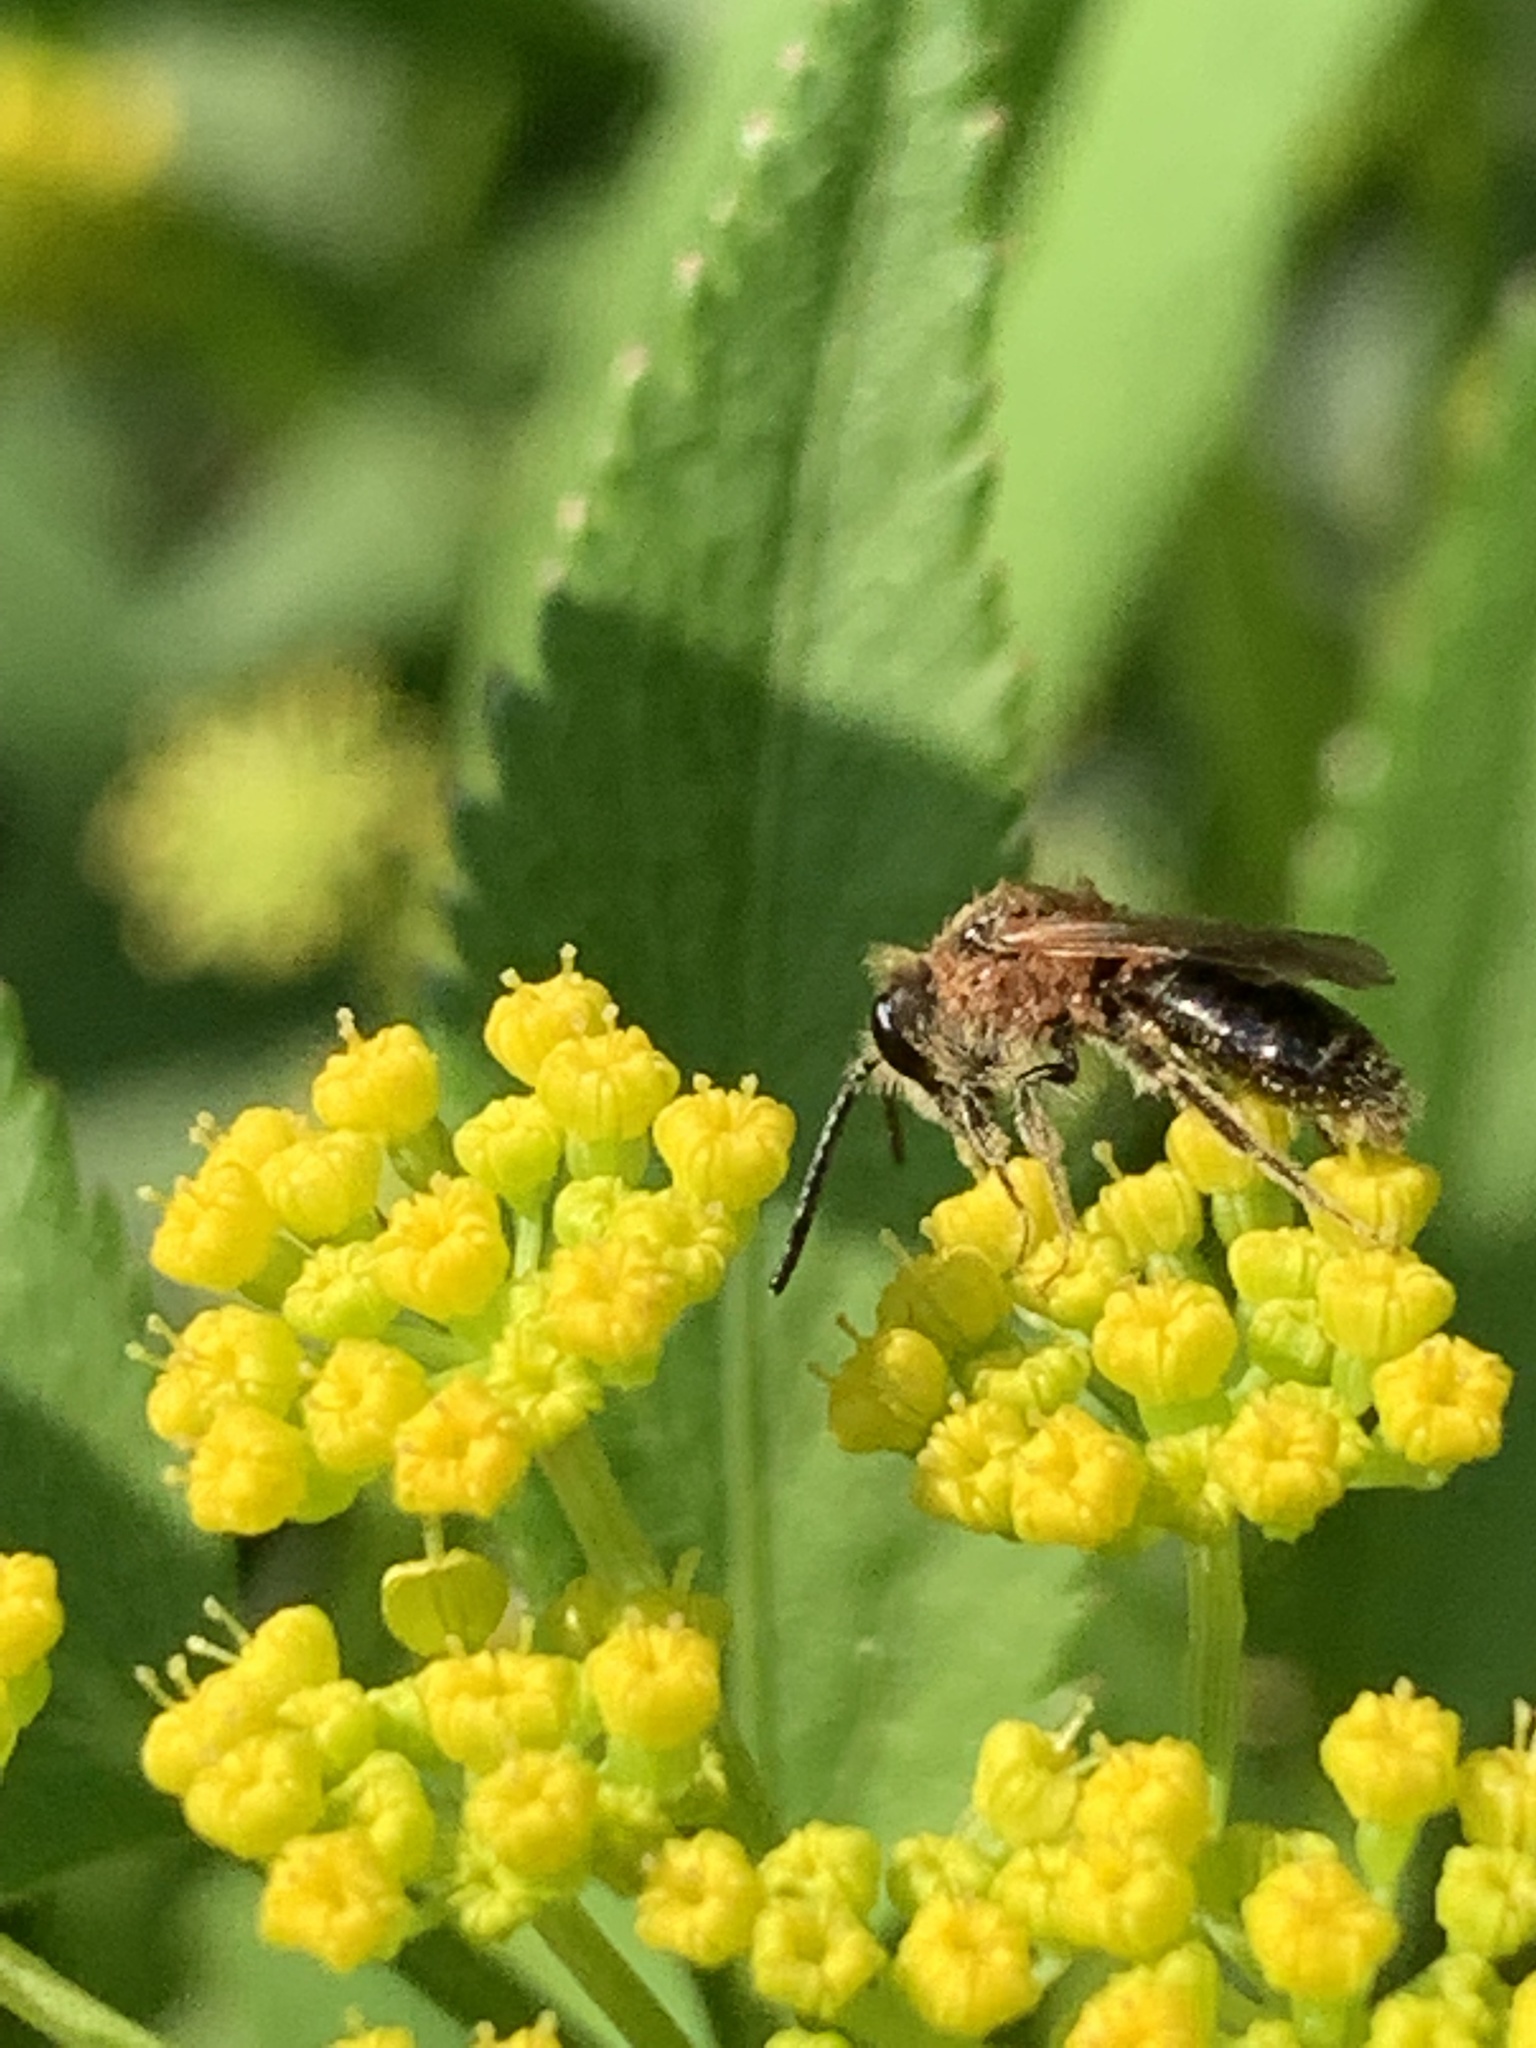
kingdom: Animalia
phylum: Arthropoda
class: Insecta
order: Hymenoptera
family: Andrenidae
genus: Andrena
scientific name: Andrena
